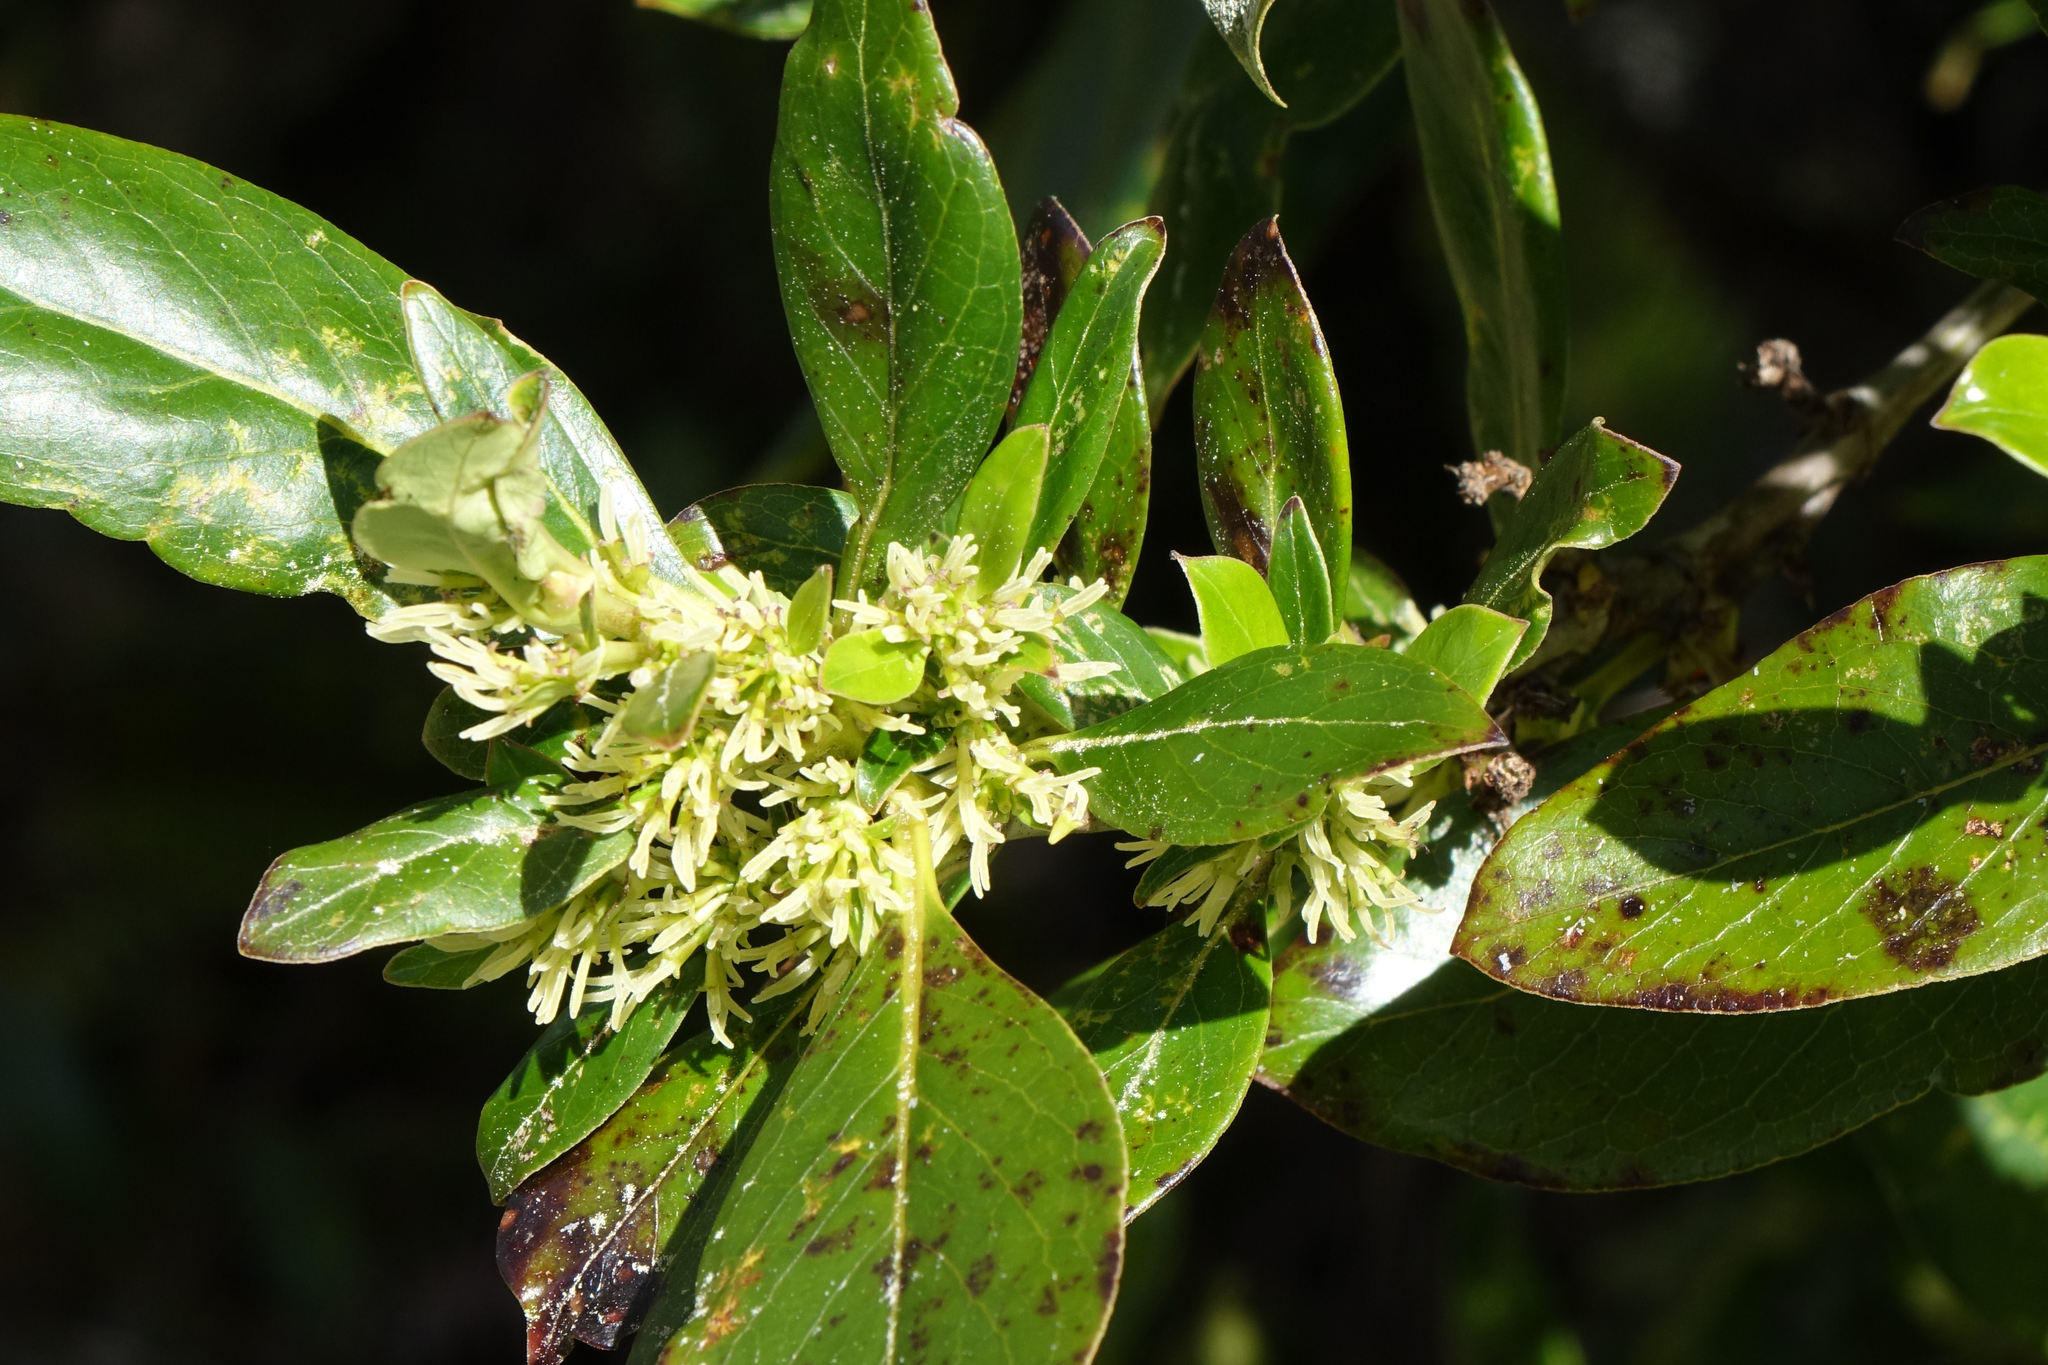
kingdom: Plantae
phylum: Tracheophyta
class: Magnoliopsida
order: Gentianales
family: Rubiaceae
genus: Coprosma
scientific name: Coprosma robusta
